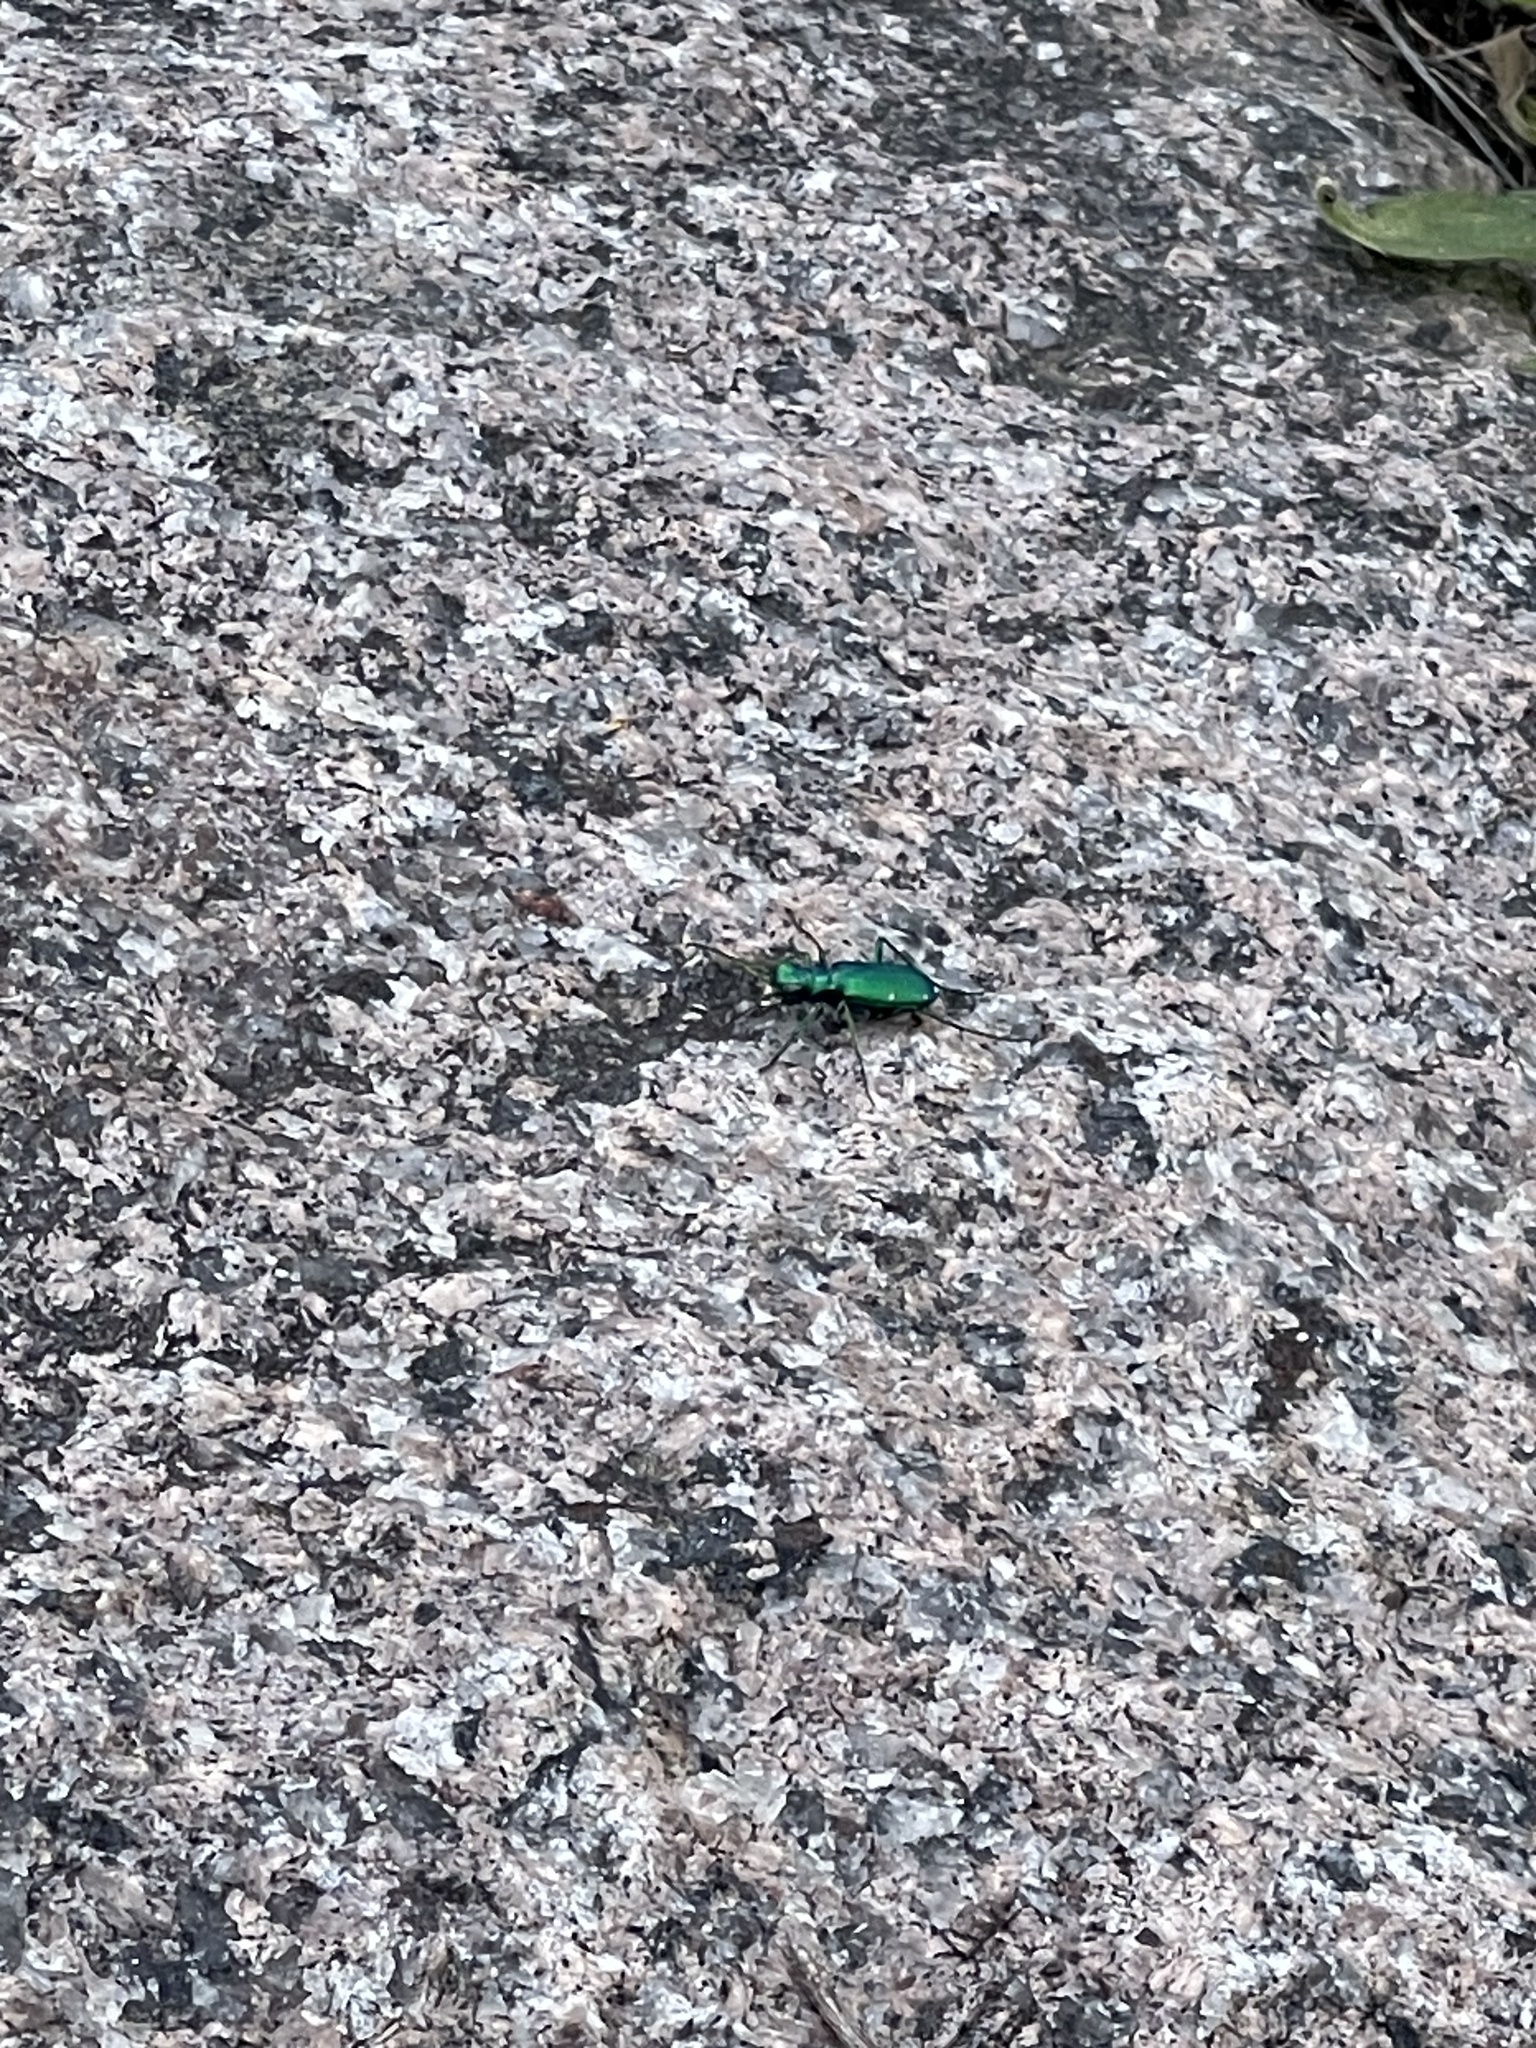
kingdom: Animalia
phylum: Arthropoda
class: Insecta
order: Coleoptera
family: Carabidae
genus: Cicindela
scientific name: Cicindela sexguttata
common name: Six-spotted tiger beetle
